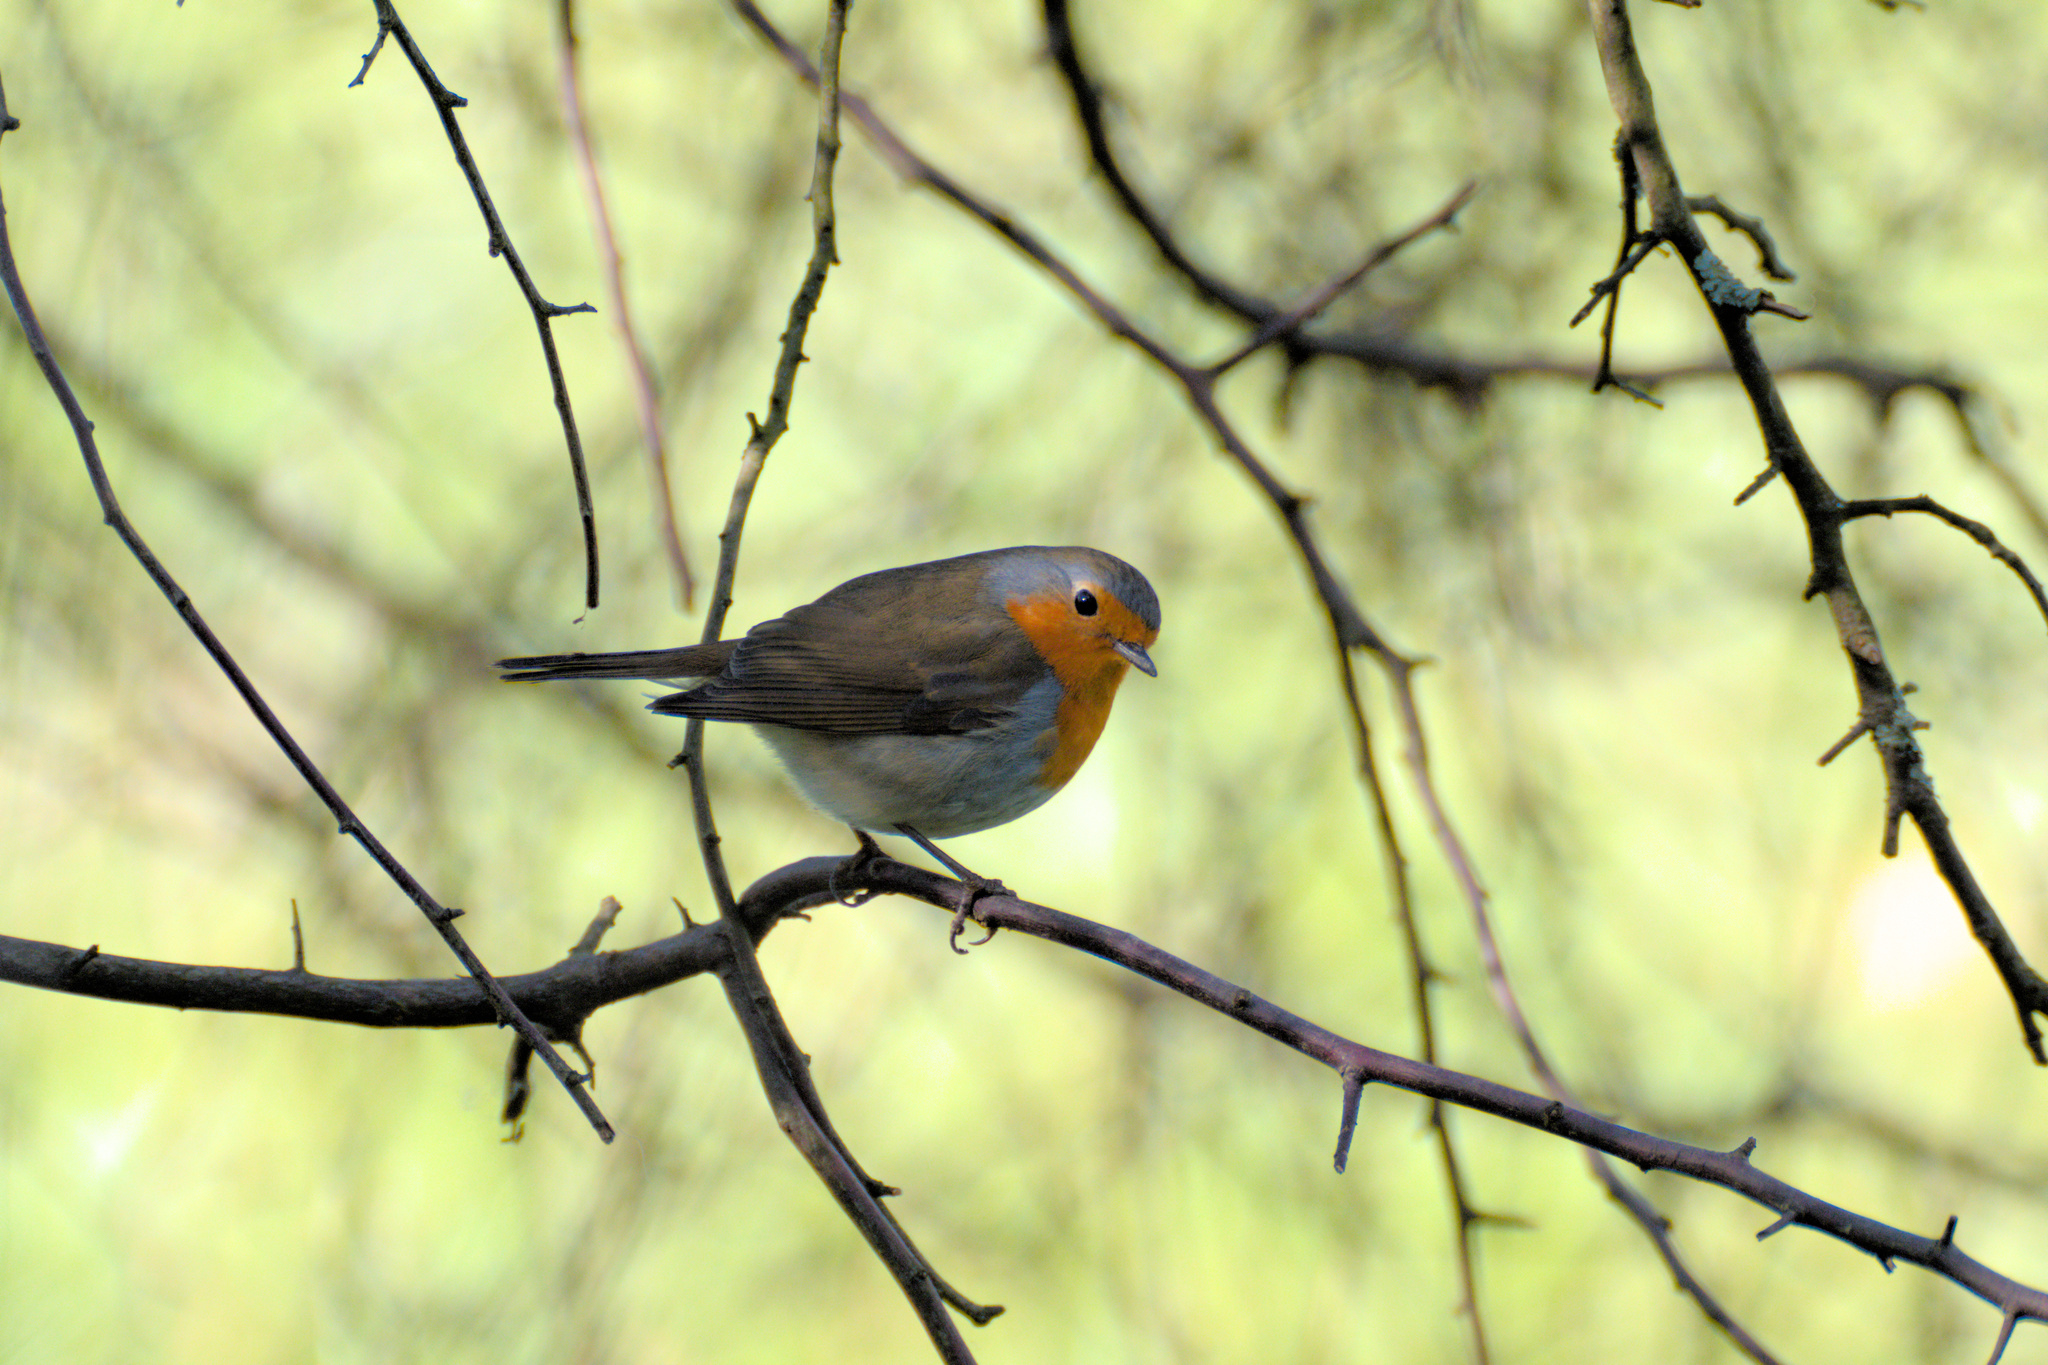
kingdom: Animalia
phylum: Chordata
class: Aves
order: Passeriformes
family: Muscicapidae
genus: Erithacus
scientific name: Erithacus rubecula
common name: European robin
